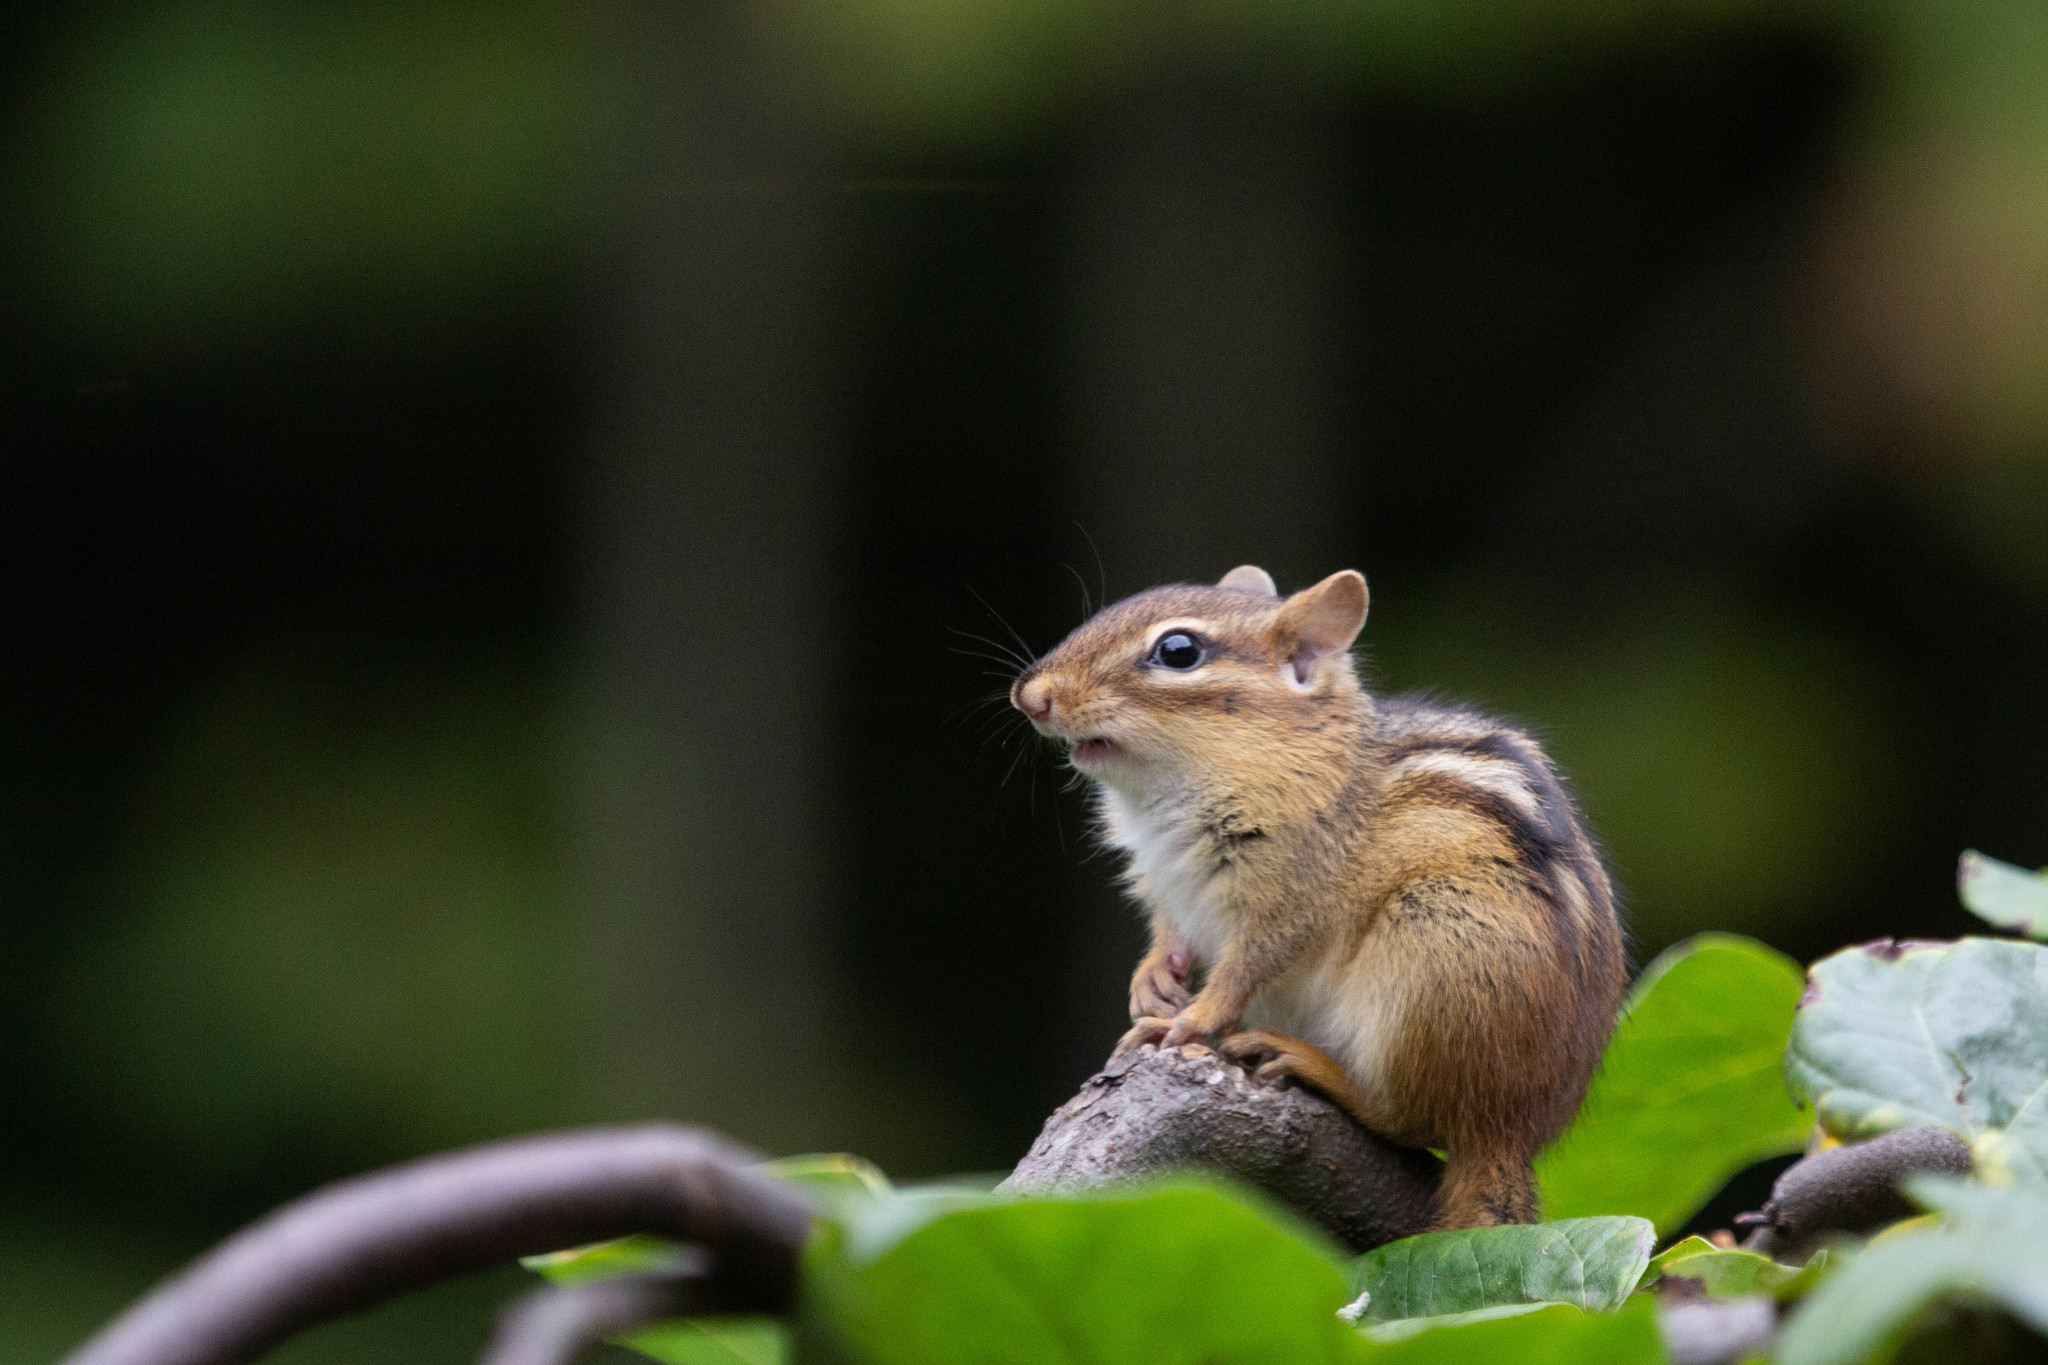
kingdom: Animalia
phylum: Chordata
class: Mammalia
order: Rodentia
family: Sciuridae
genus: Tamias
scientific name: Tamias striatus
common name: Eastern chipmunk
